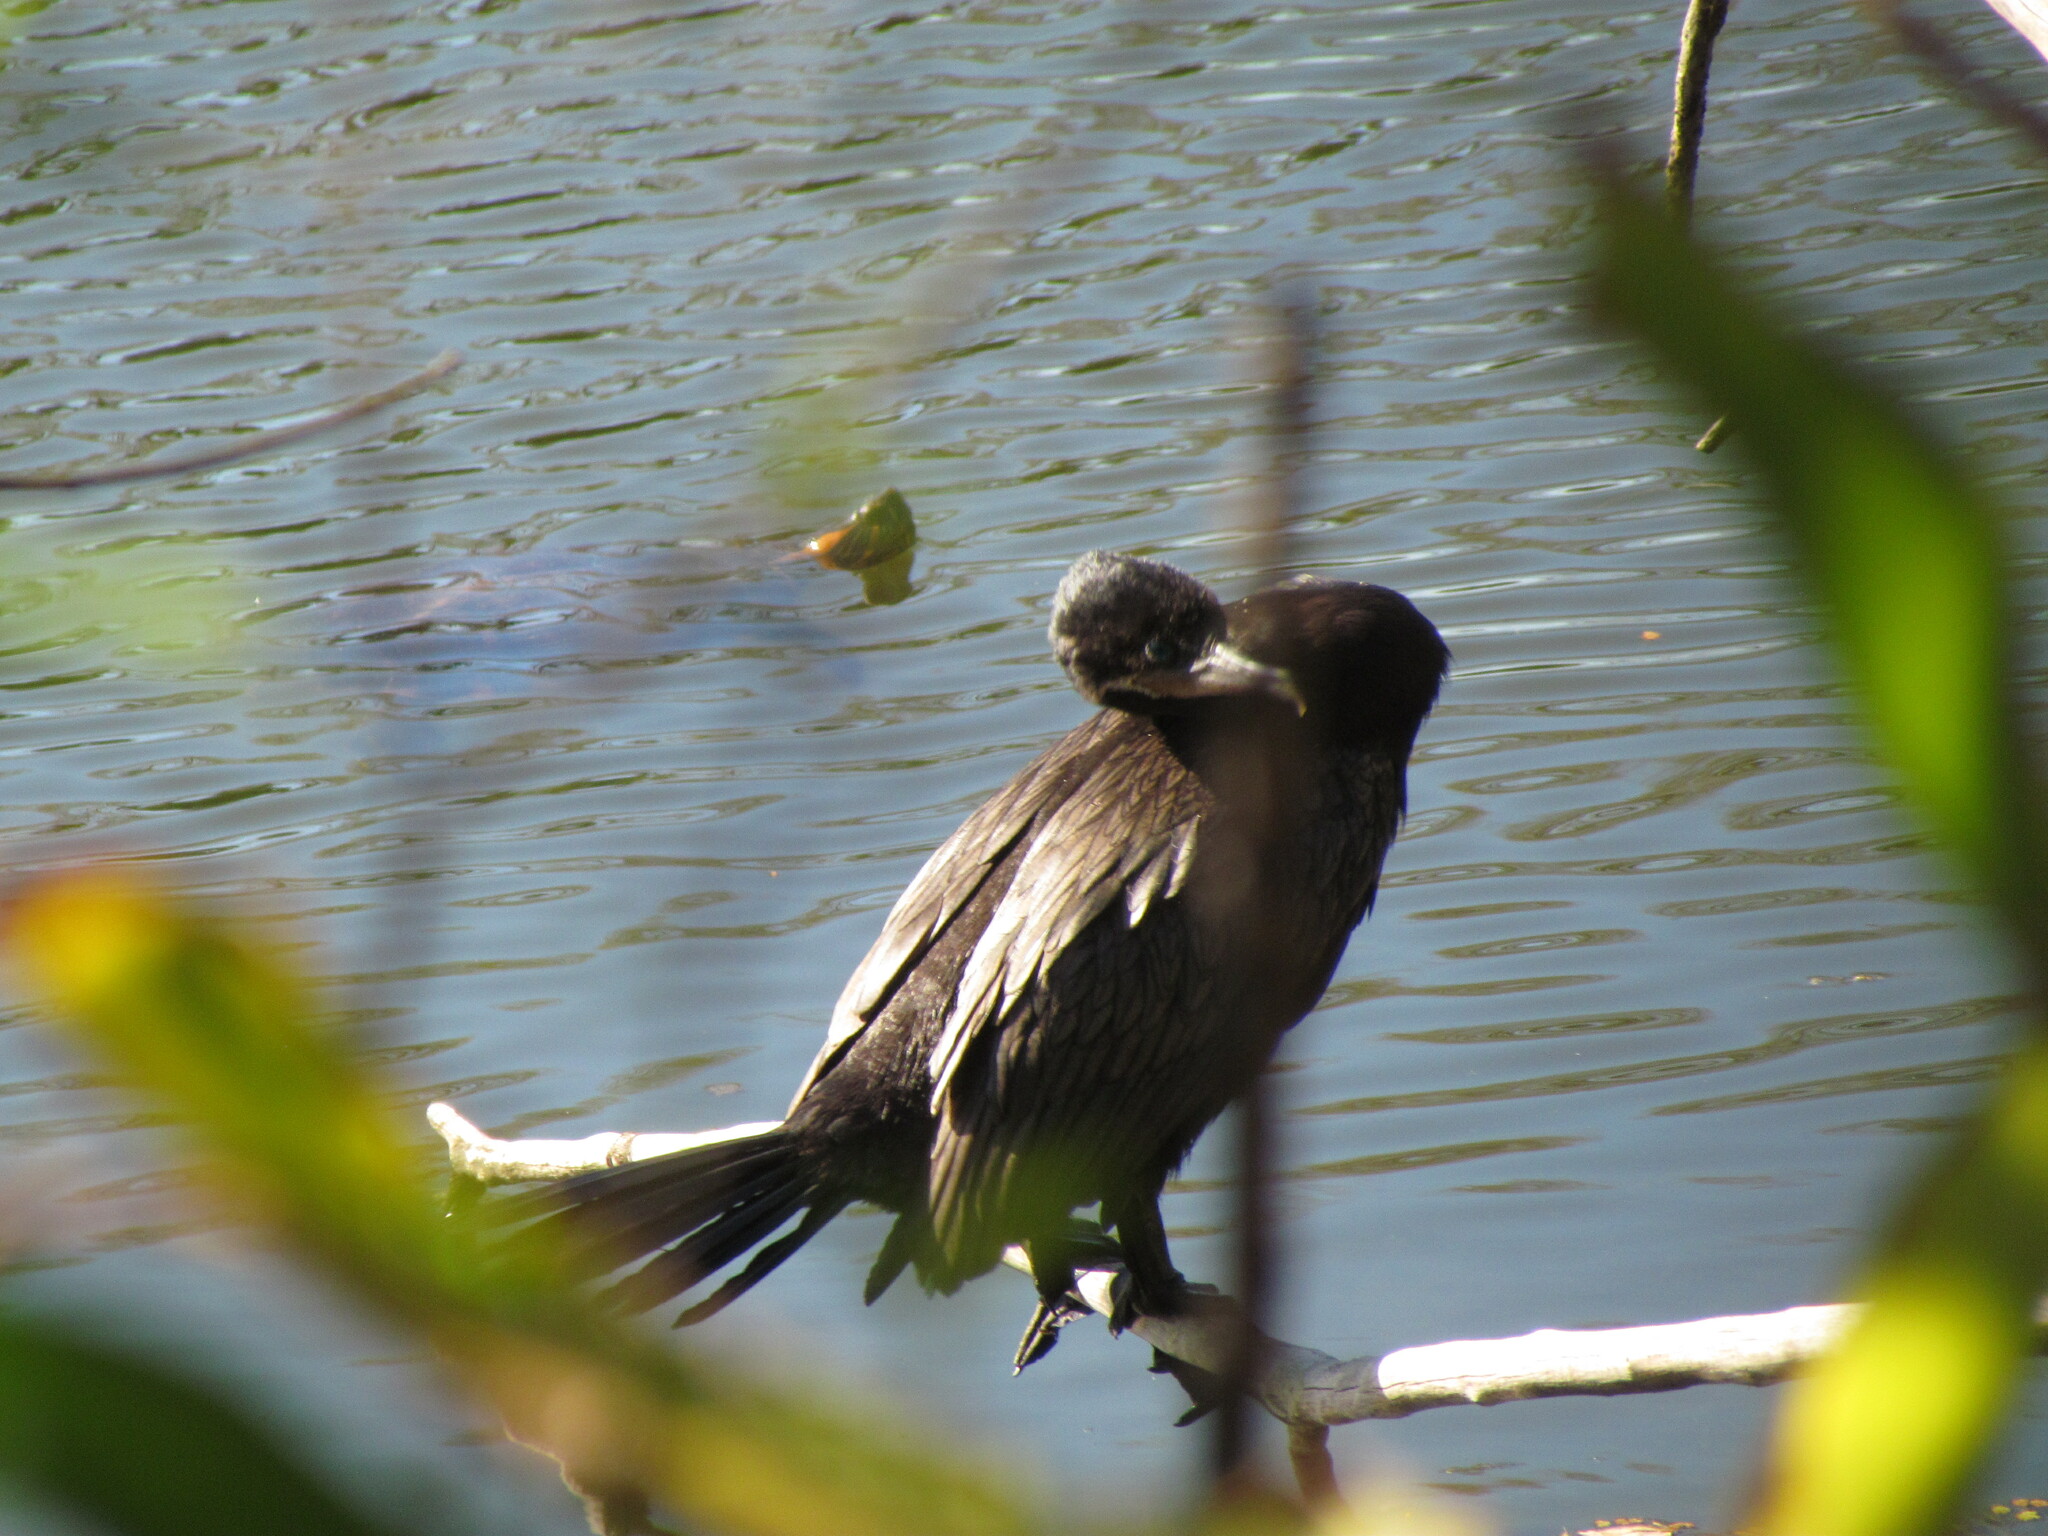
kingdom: Animalia
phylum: Chordata
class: Testudines
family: Emydidae
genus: Trachemys
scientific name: Trachemys dorbigni
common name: Black-bellied slider
